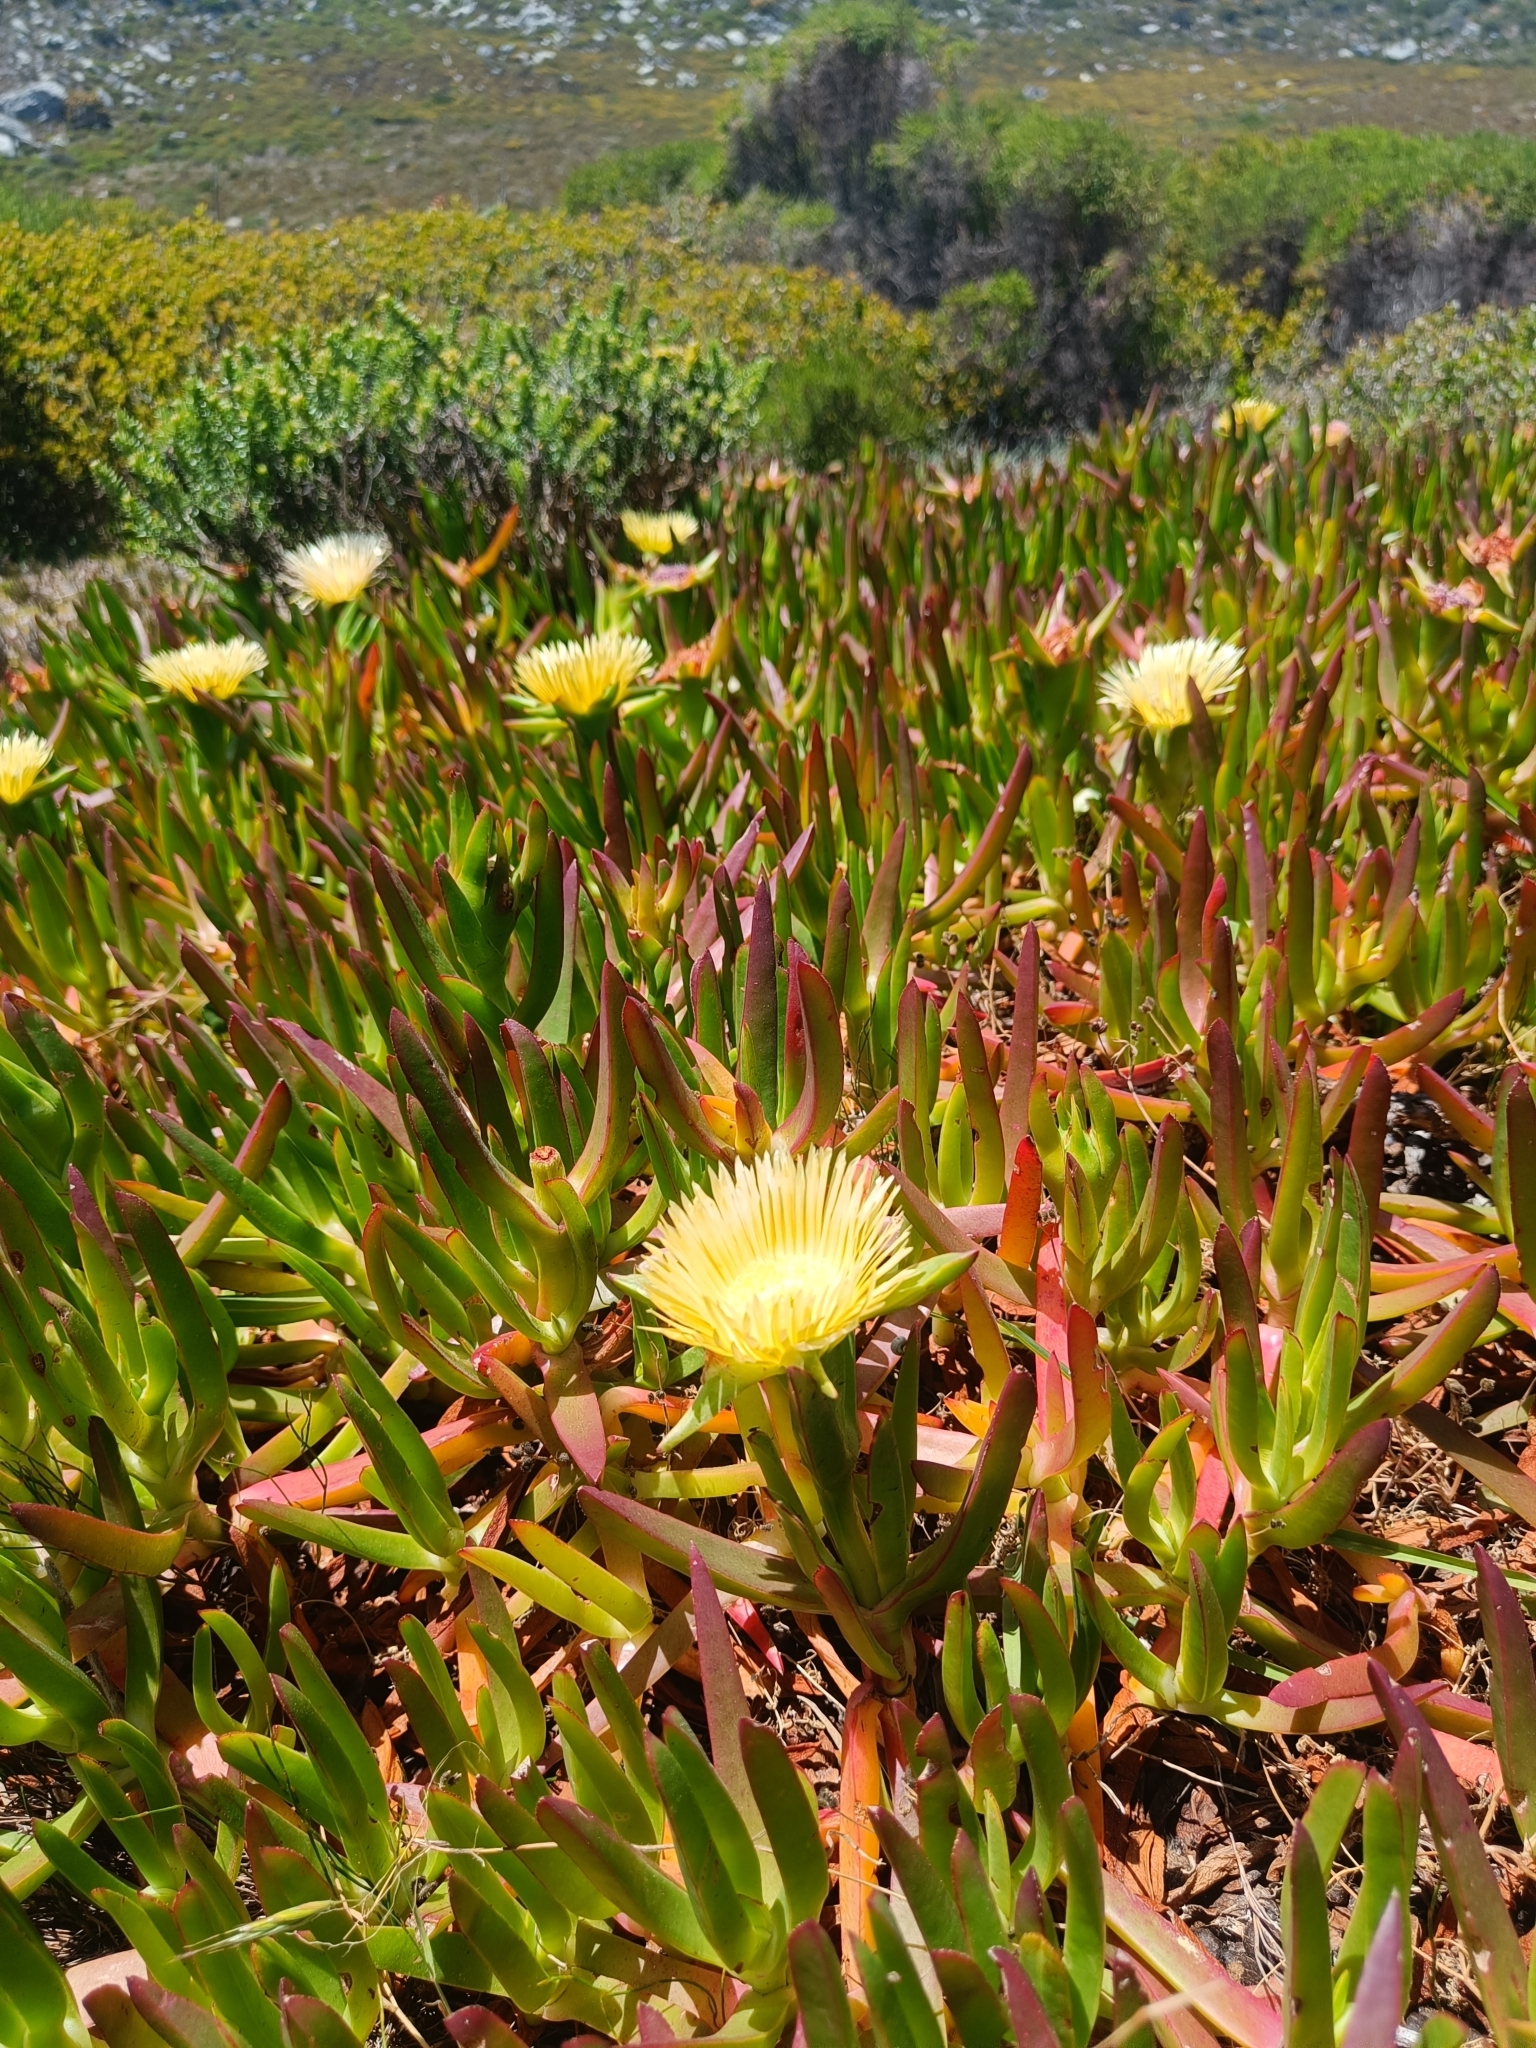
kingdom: Plantae
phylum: Tracheophyta
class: Magnoliopsida
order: Caryophyllales
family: Aizoaceae
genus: Carpobrotus
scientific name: Carpobrotus edulis
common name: Hottentot-fig
